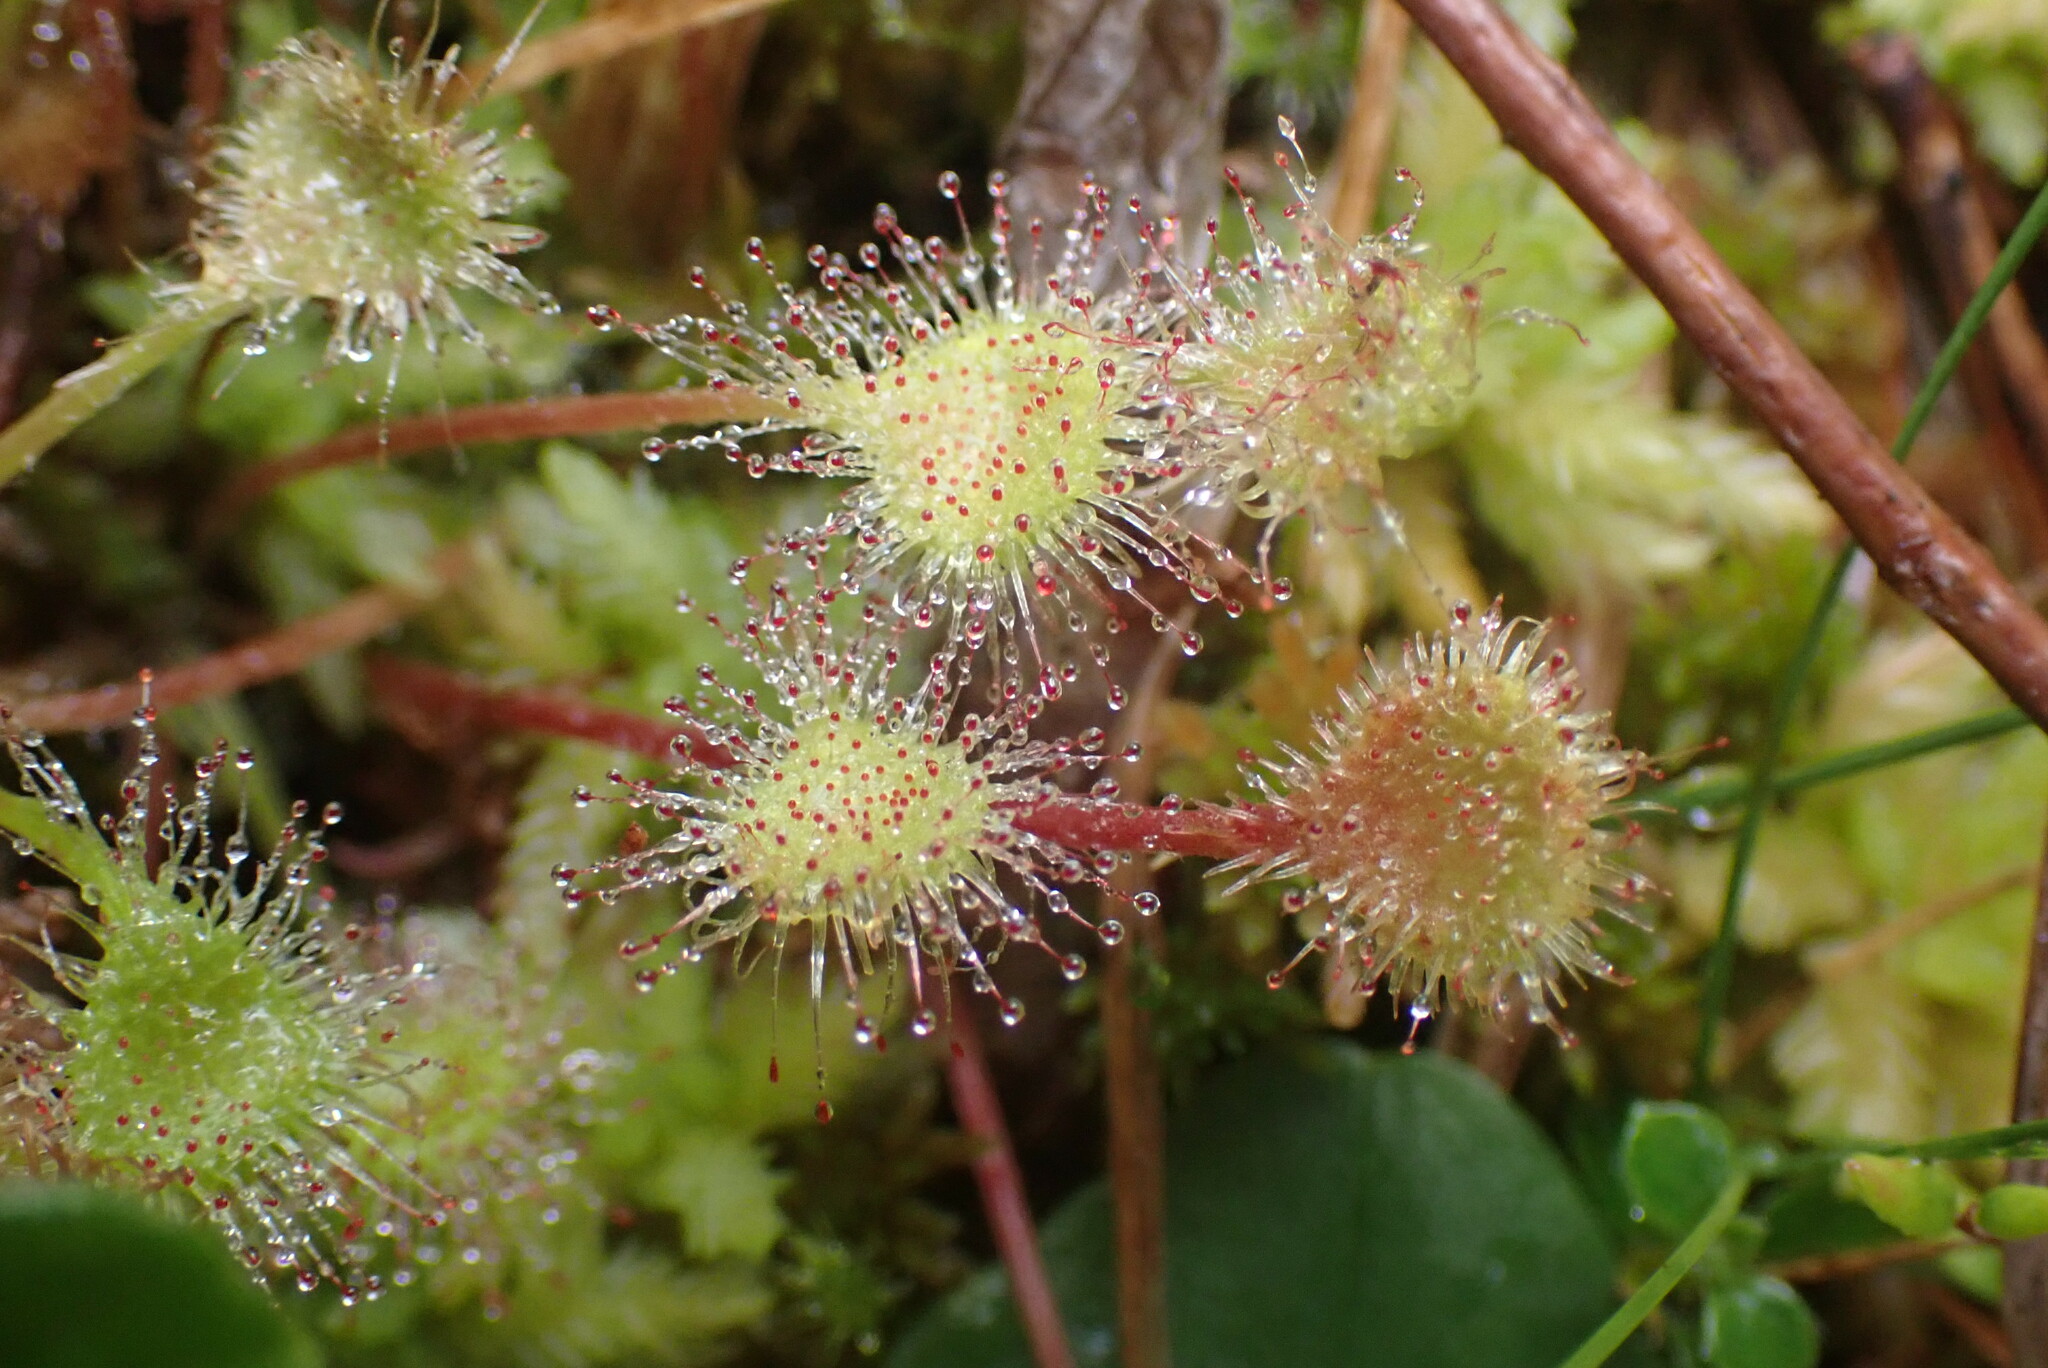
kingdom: Plantae
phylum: Tracheophyta
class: Magnoliopsida
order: Caryophyllales
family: Droseraceae
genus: Drosera
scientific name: Drosera rotundifolia
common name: Round-leaved sundew
